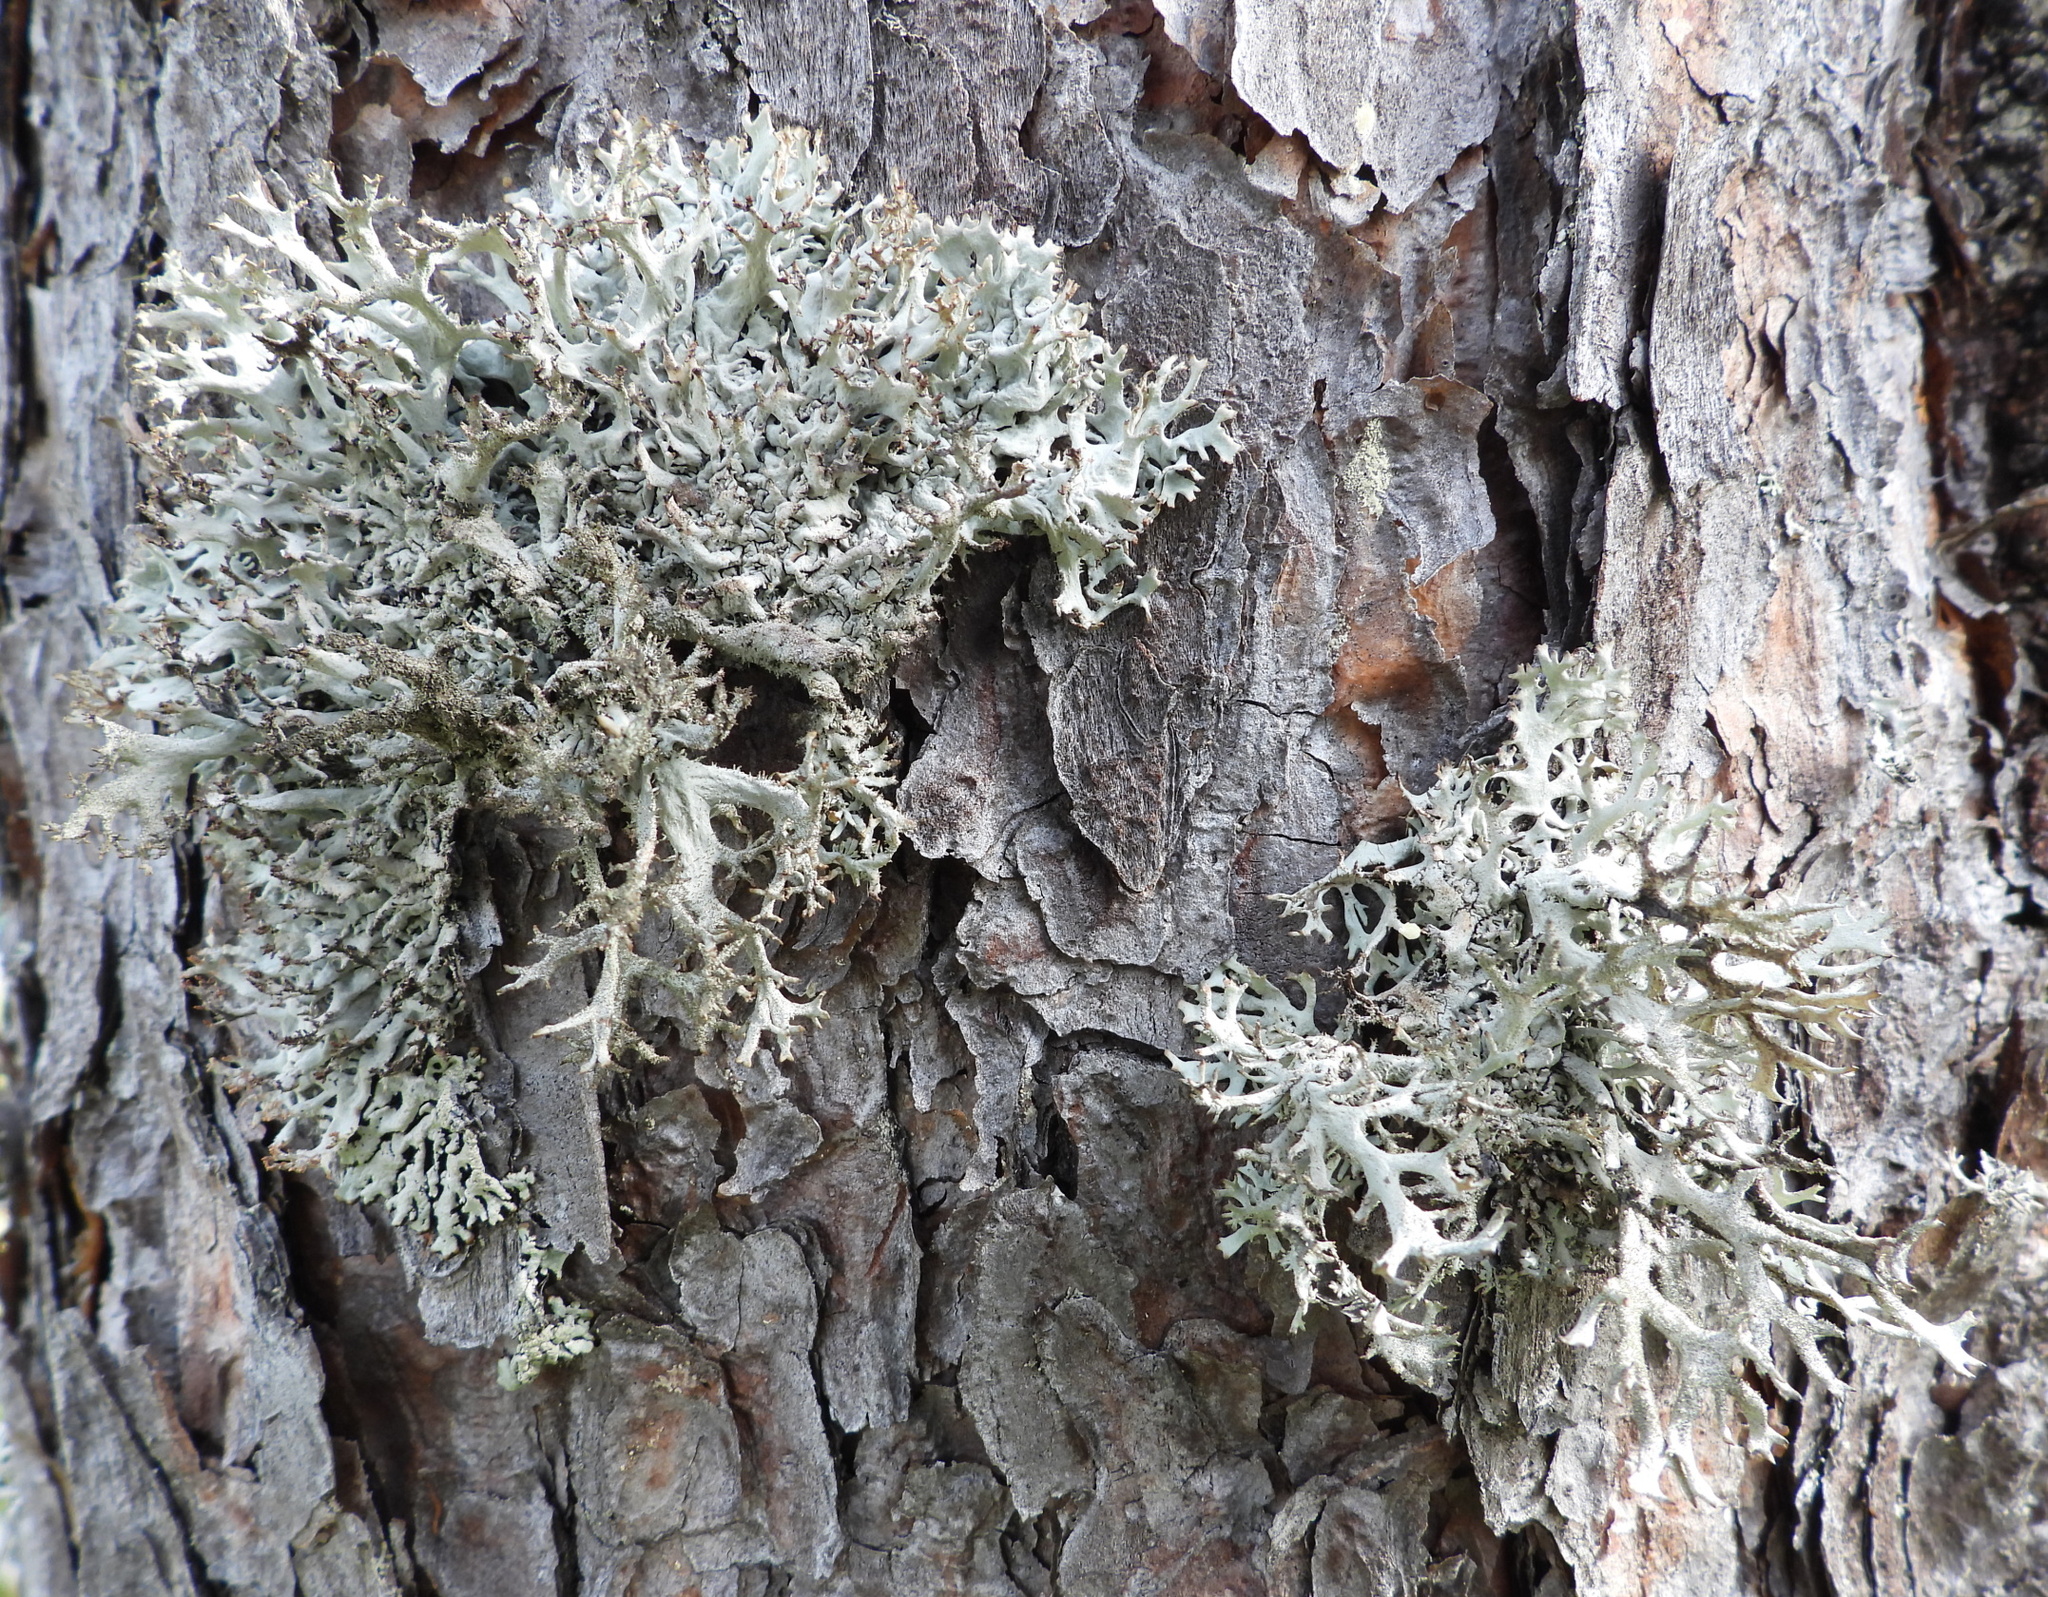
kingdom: Fungi
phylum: Ascomycota
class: Lecanoromycetes
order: Lecanorales
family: Parmeliaceae
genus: Pseudevernia
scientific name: Pseudevernia furfuracea
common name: Tree moss
